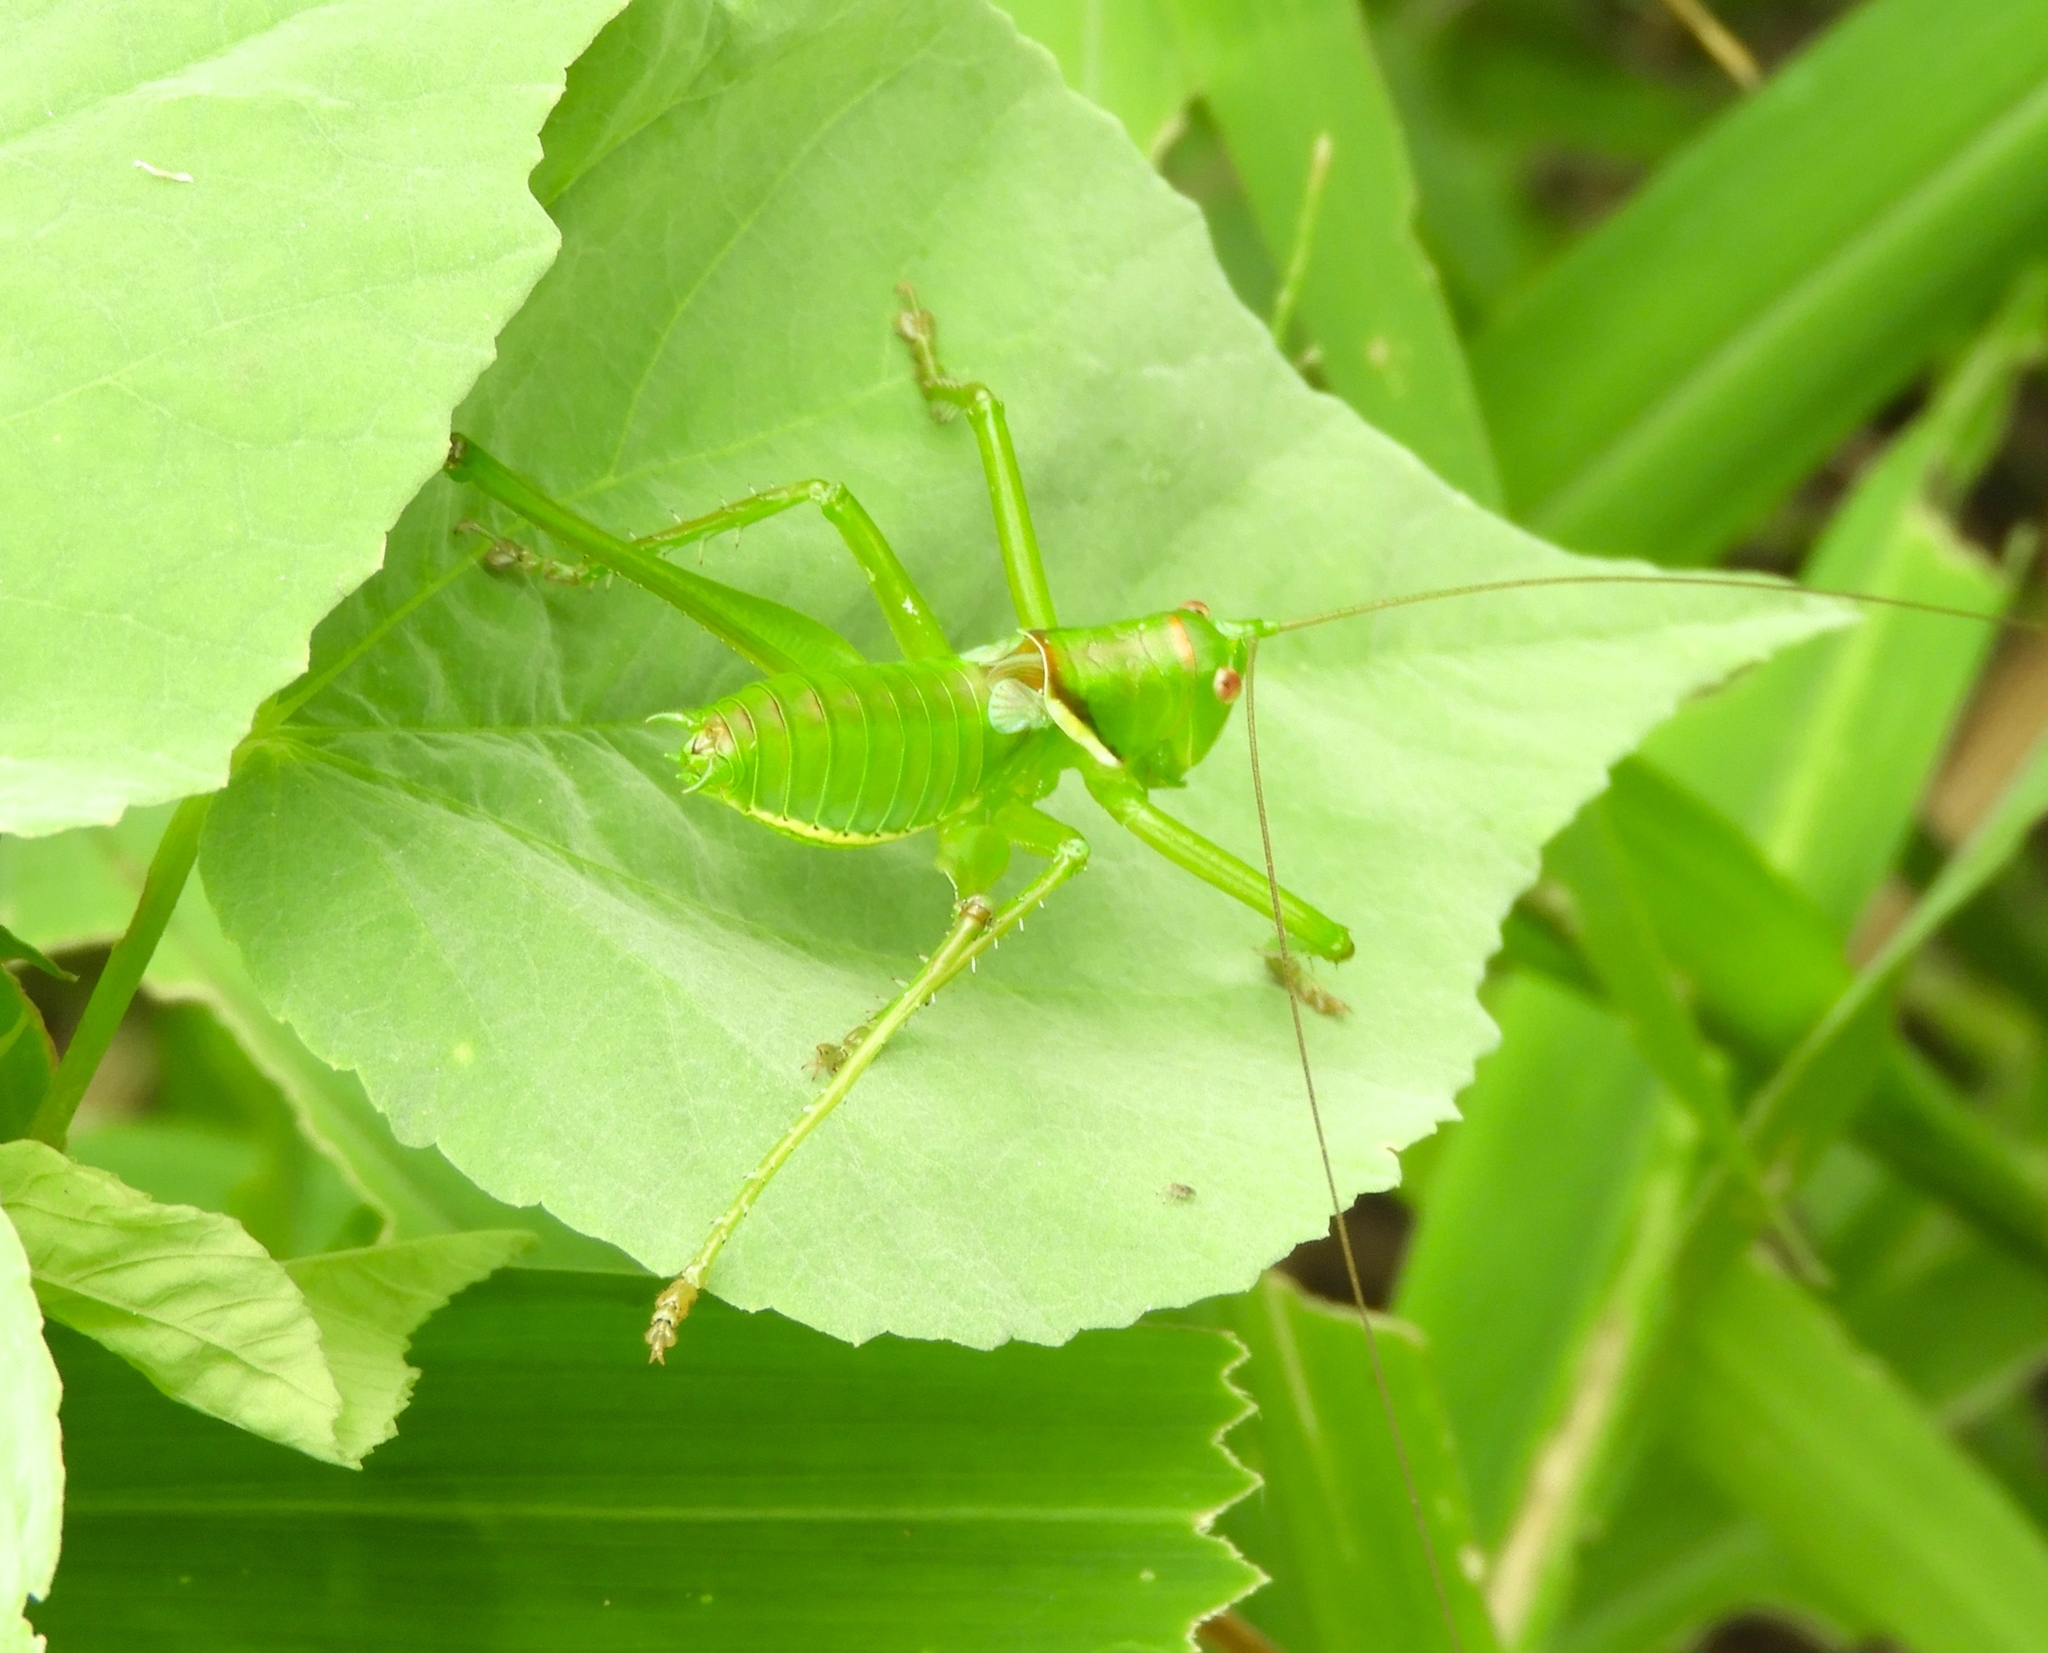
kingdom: Animalia
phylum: Arthropoda
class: Insecta
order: Orthoptera
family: Tettigoniidae
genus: Neobarrettia
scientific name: Neobarrettia sinaloae
